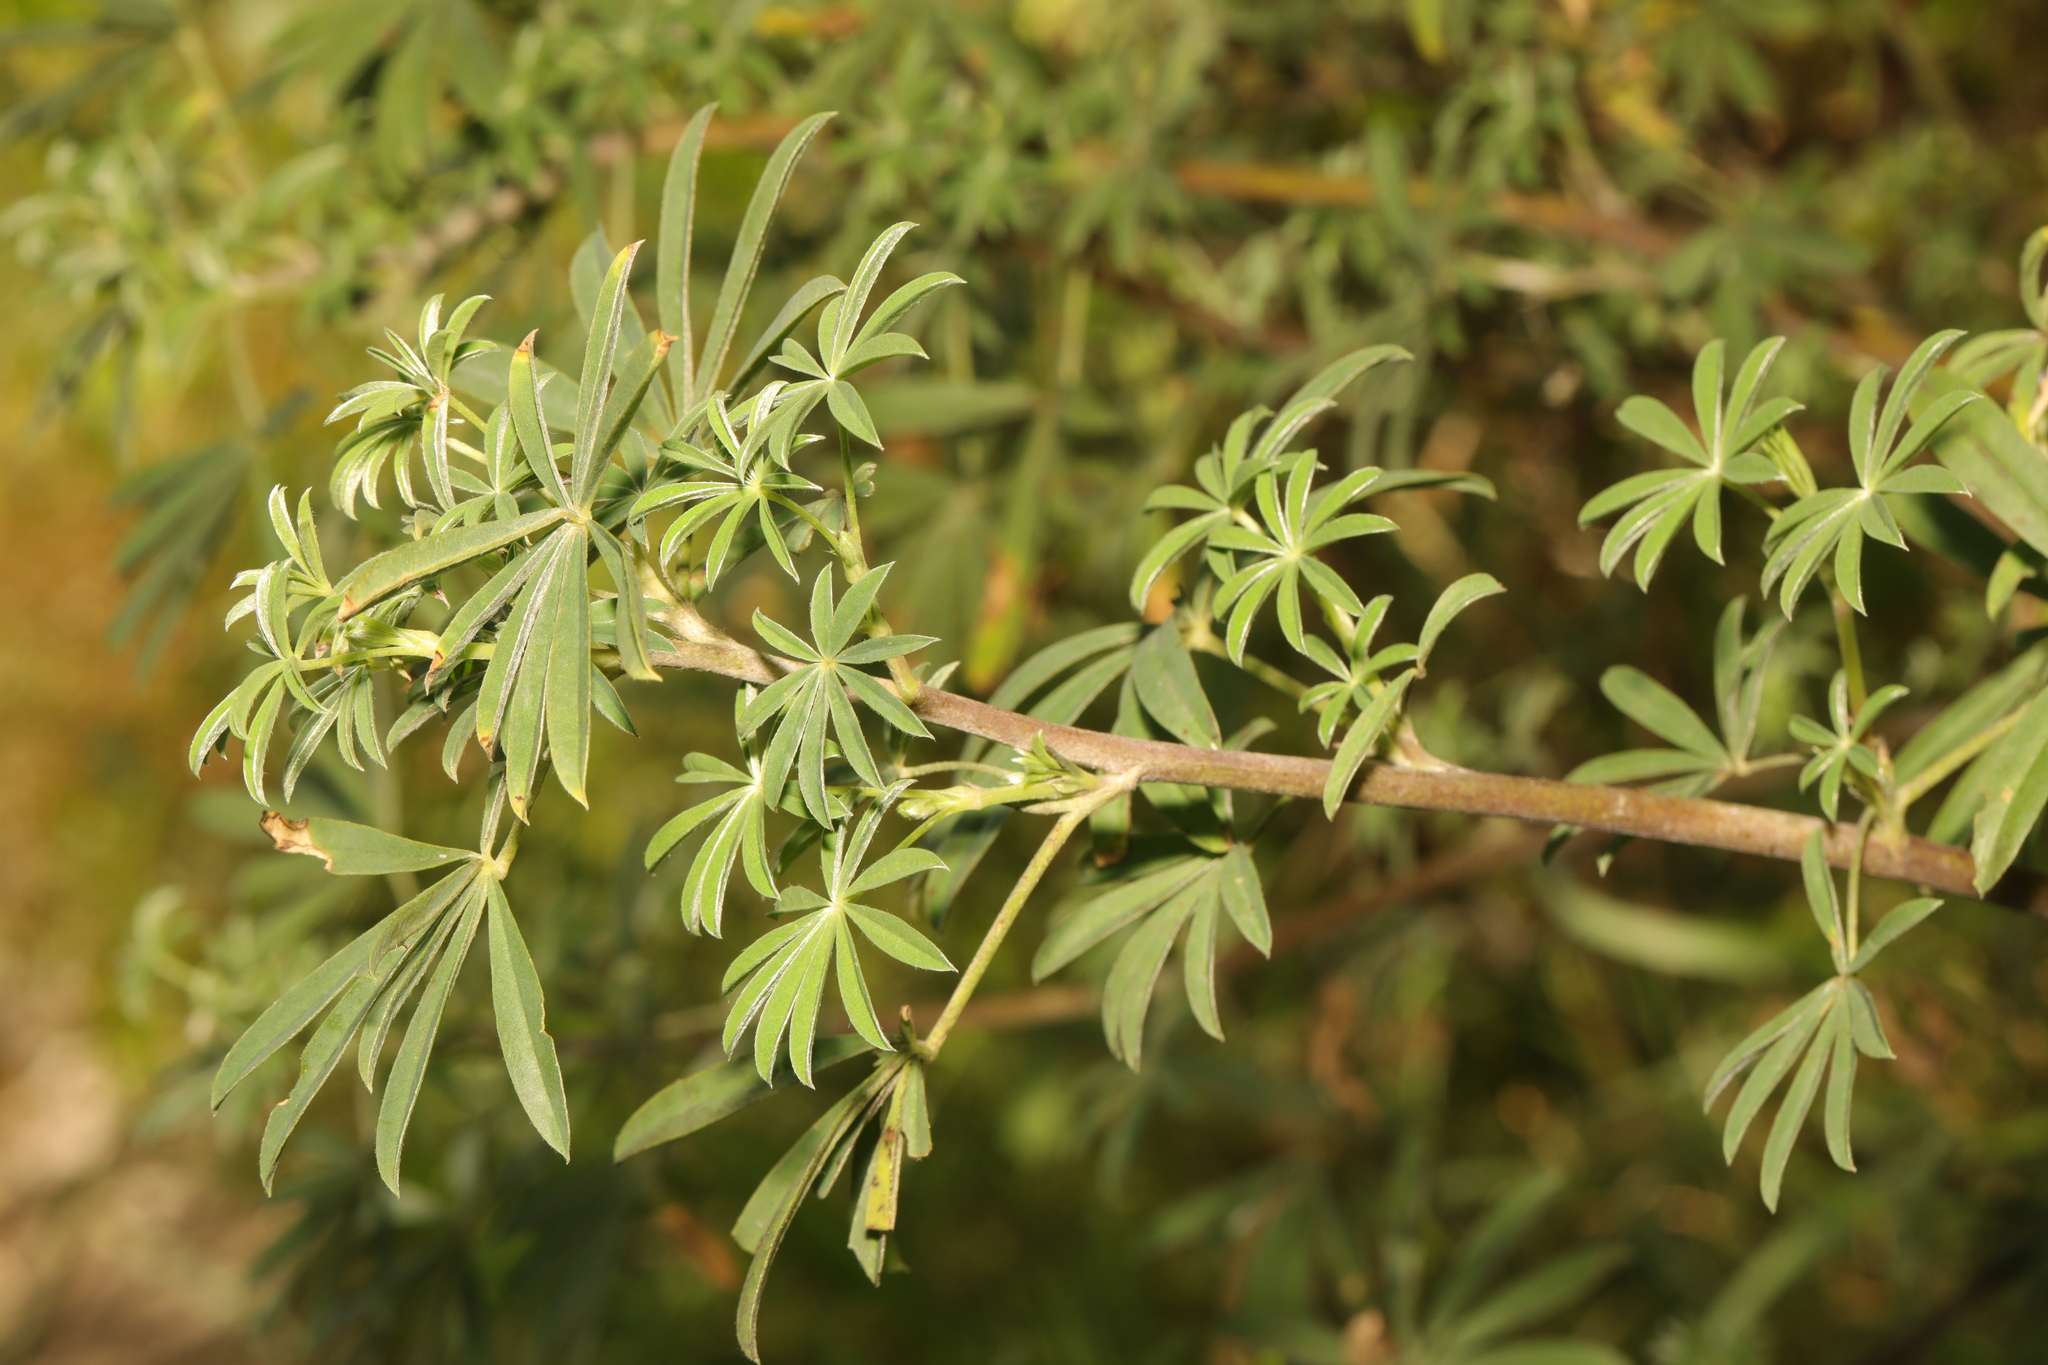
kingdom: Plantae
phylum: Tracheophyta
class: Magnoliopsida
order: Fabales
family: Fabaceae
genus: Lupinus
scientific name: Lupinus arboreus
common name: Yellow bush lupine
